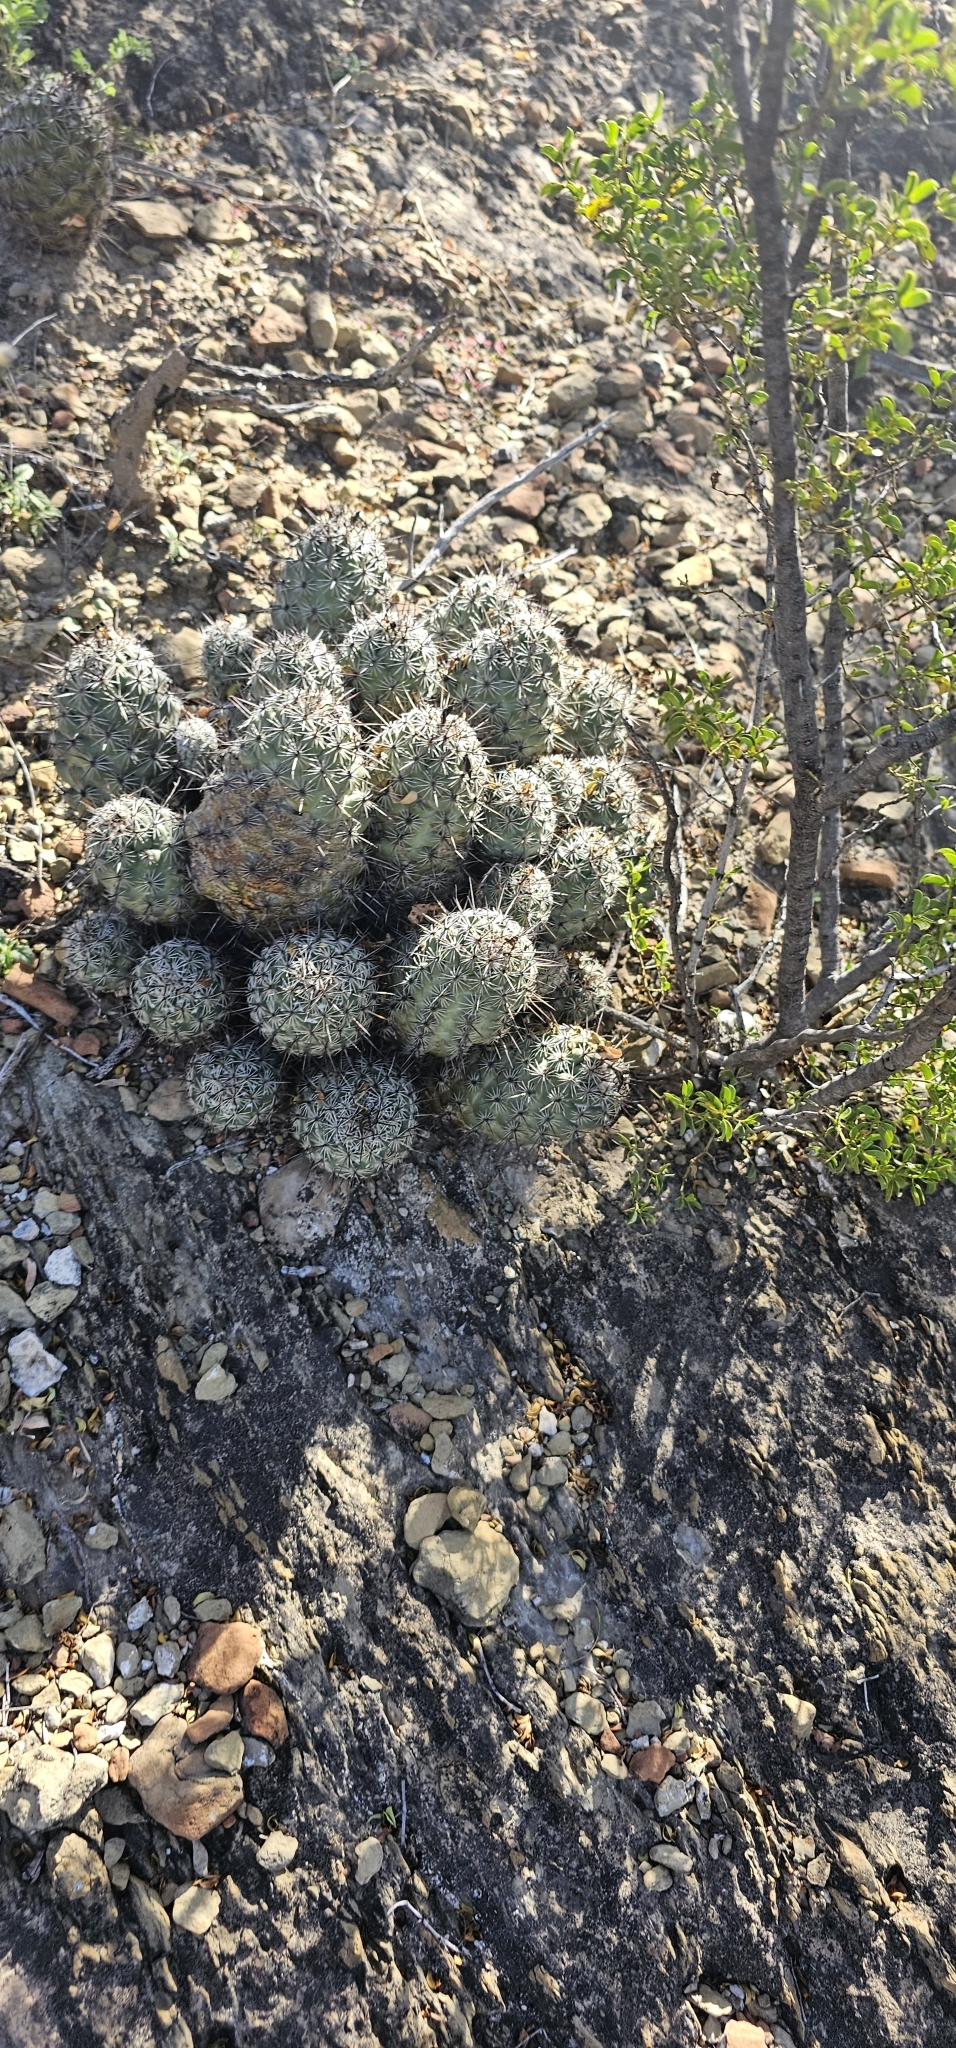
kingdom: Plantae
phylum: Tracheophyta
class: Magnoliopsida
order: Caryophyllales
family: Cactaceae
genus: Cochemiea
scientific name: Cochemiea conoidea
